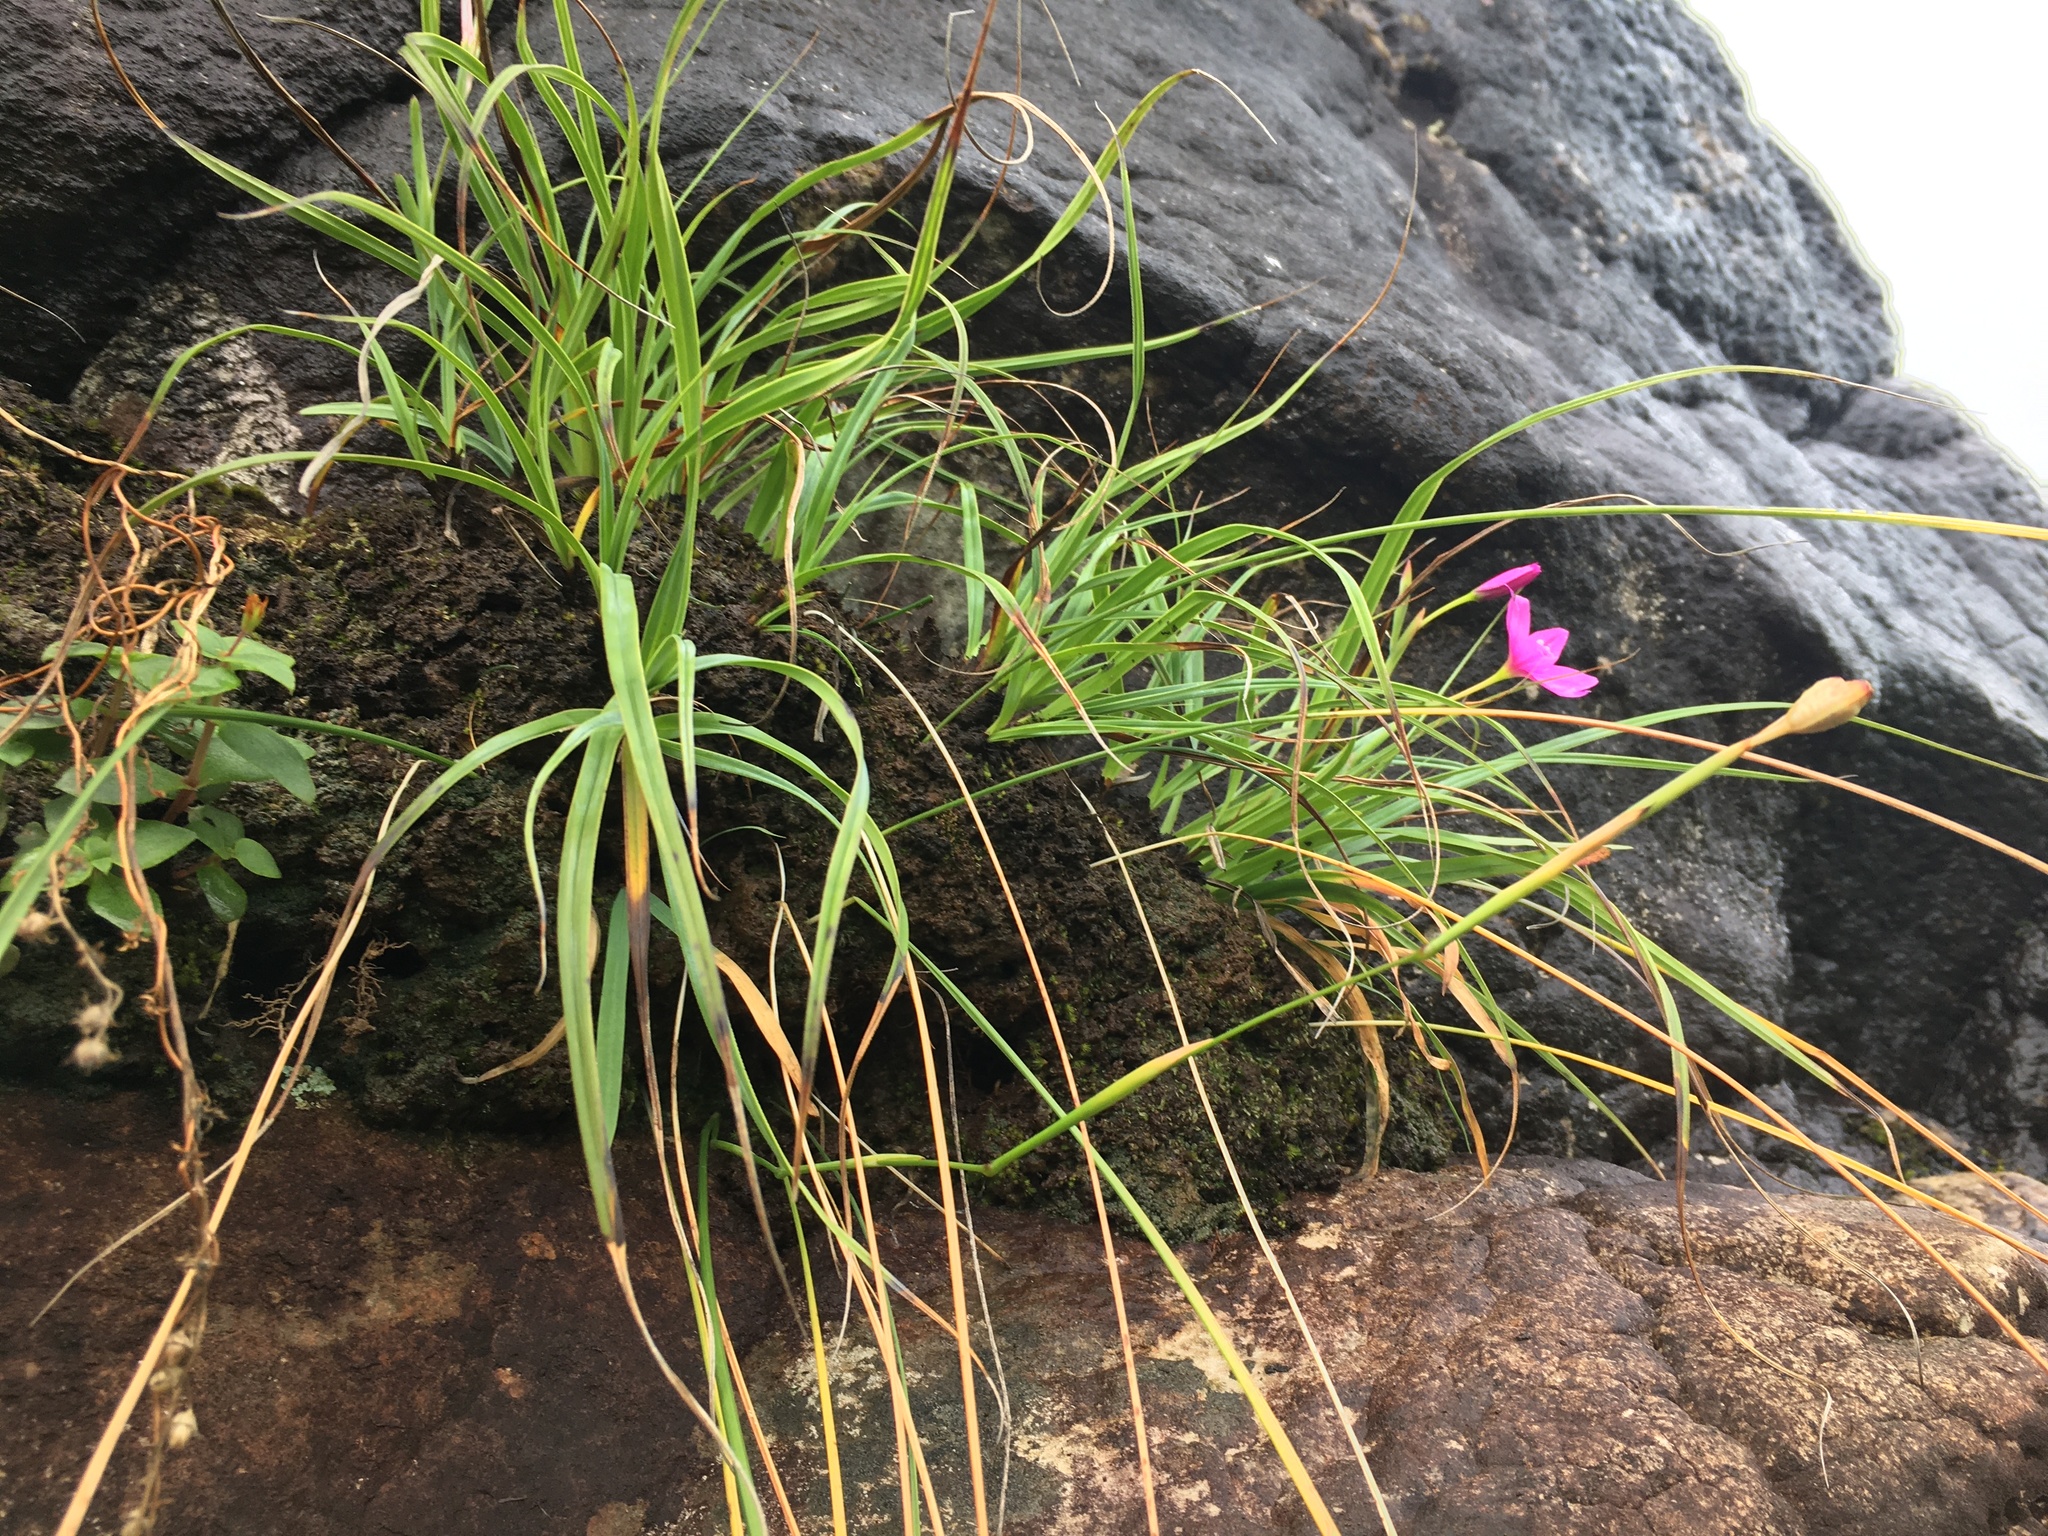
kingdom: Plantae
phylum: Tracheophyta
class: Liliopsida
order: Asparagales
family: Iridaceae
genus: Hesperantha
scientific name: Hesperantha grandiflora
